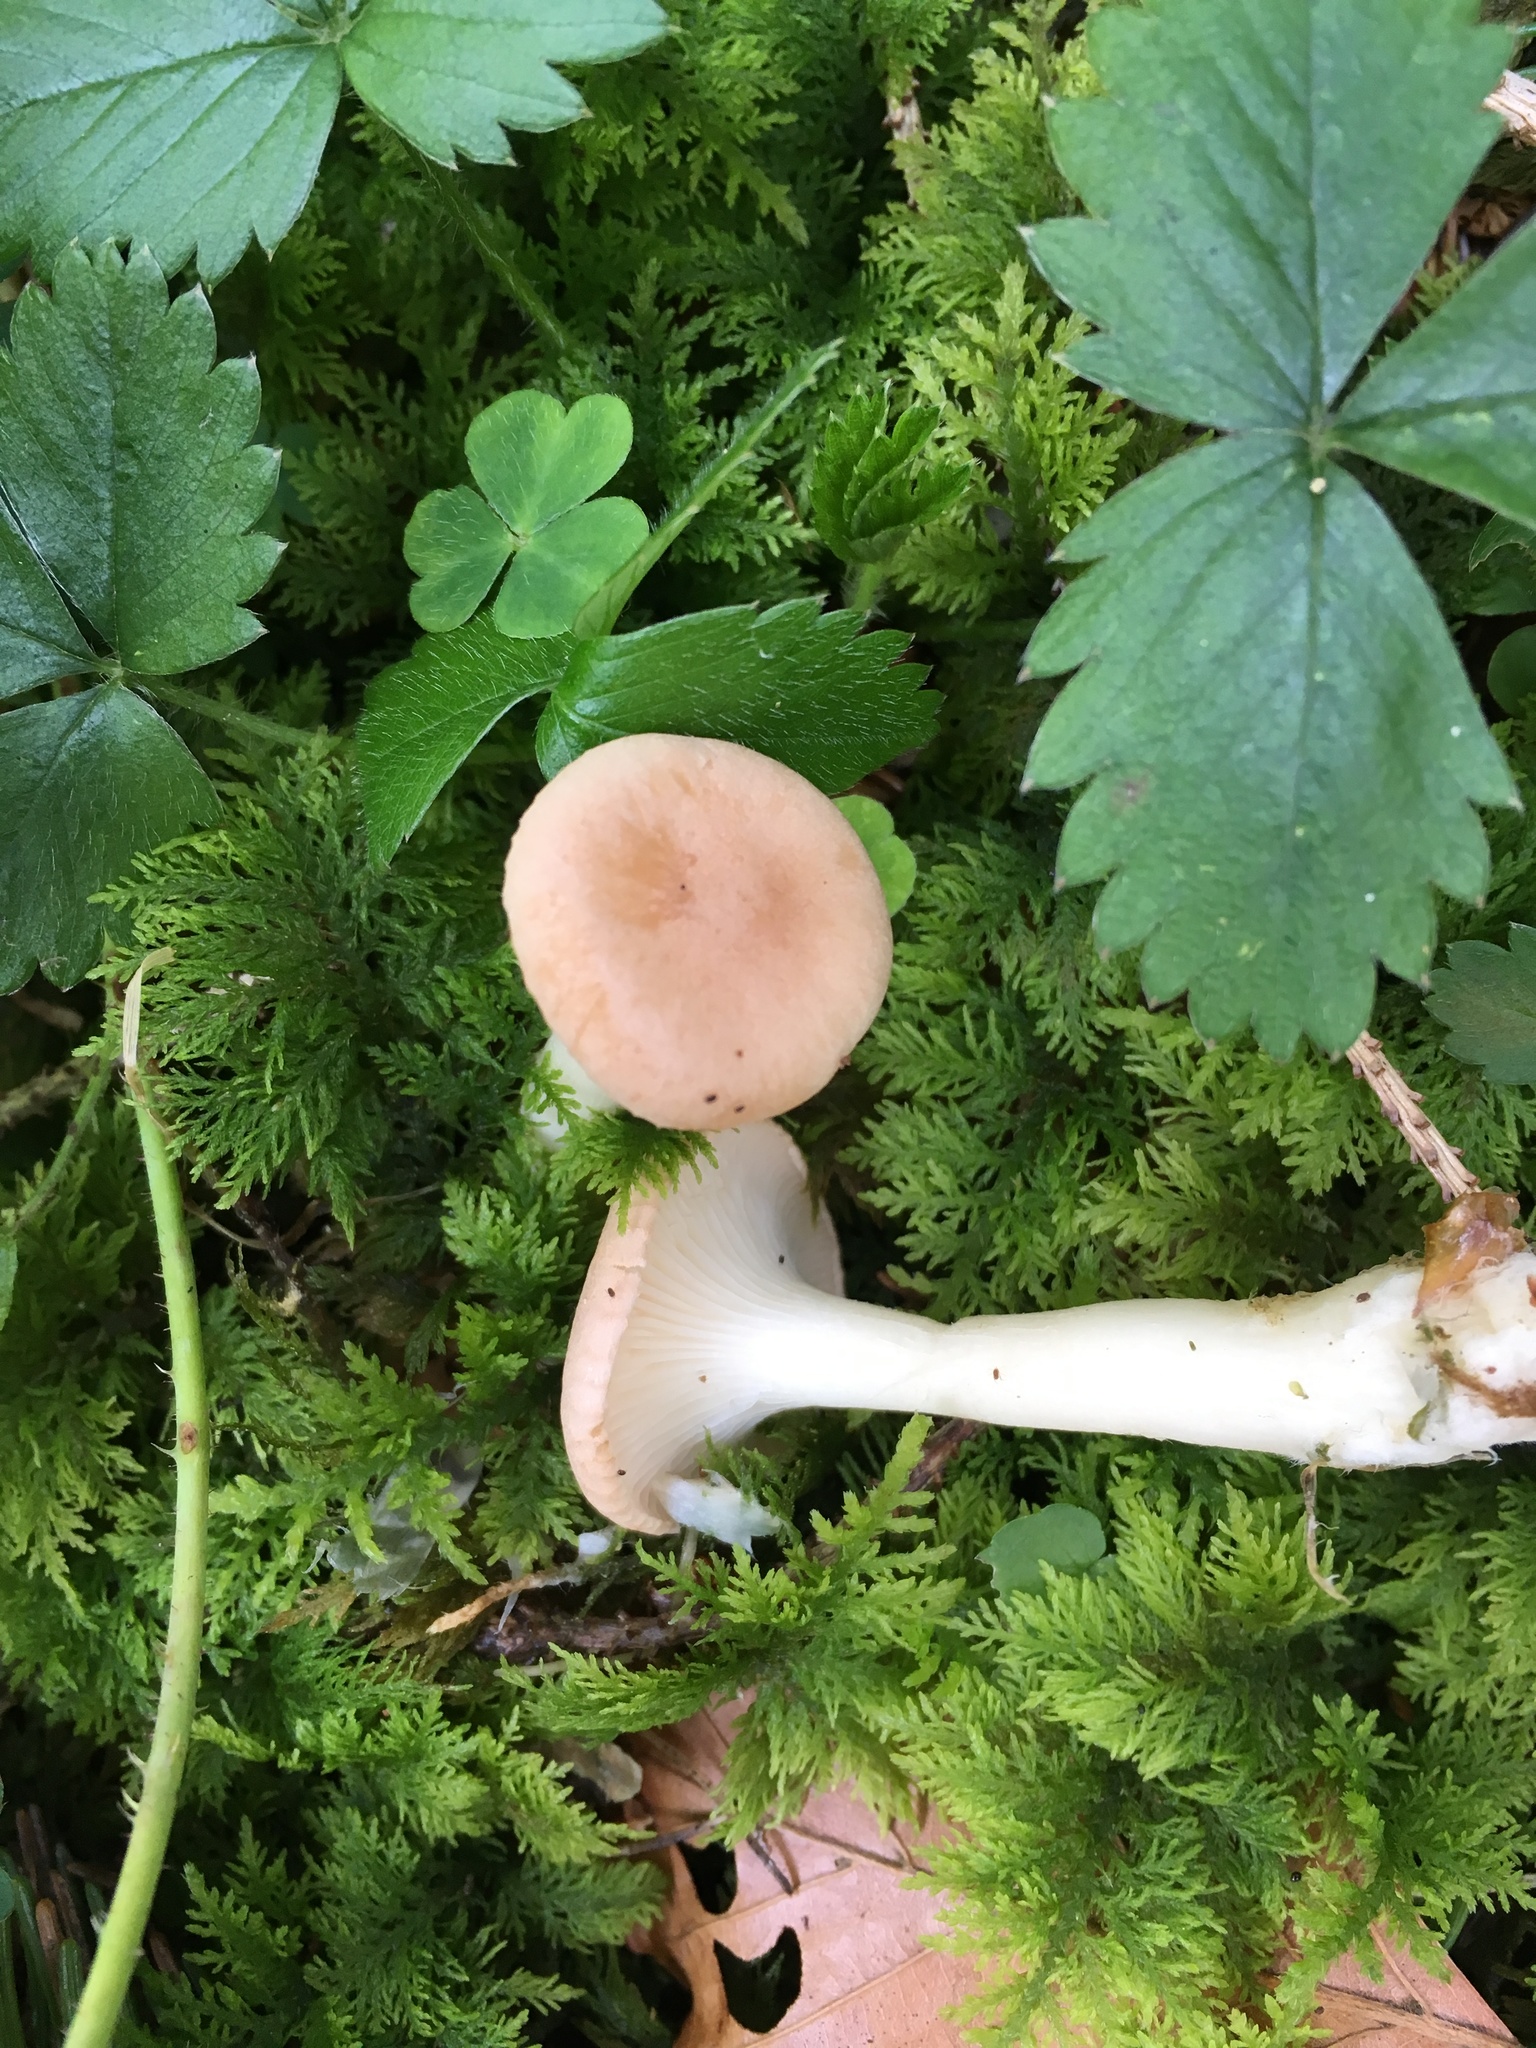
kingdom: Fungi
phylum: Basidiomycota
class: Agaricomycetes
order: Agaricales
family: Tricholomataceae
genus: Infundibulicybe
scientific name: Infundibulicybe gibba
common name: Common funnel
